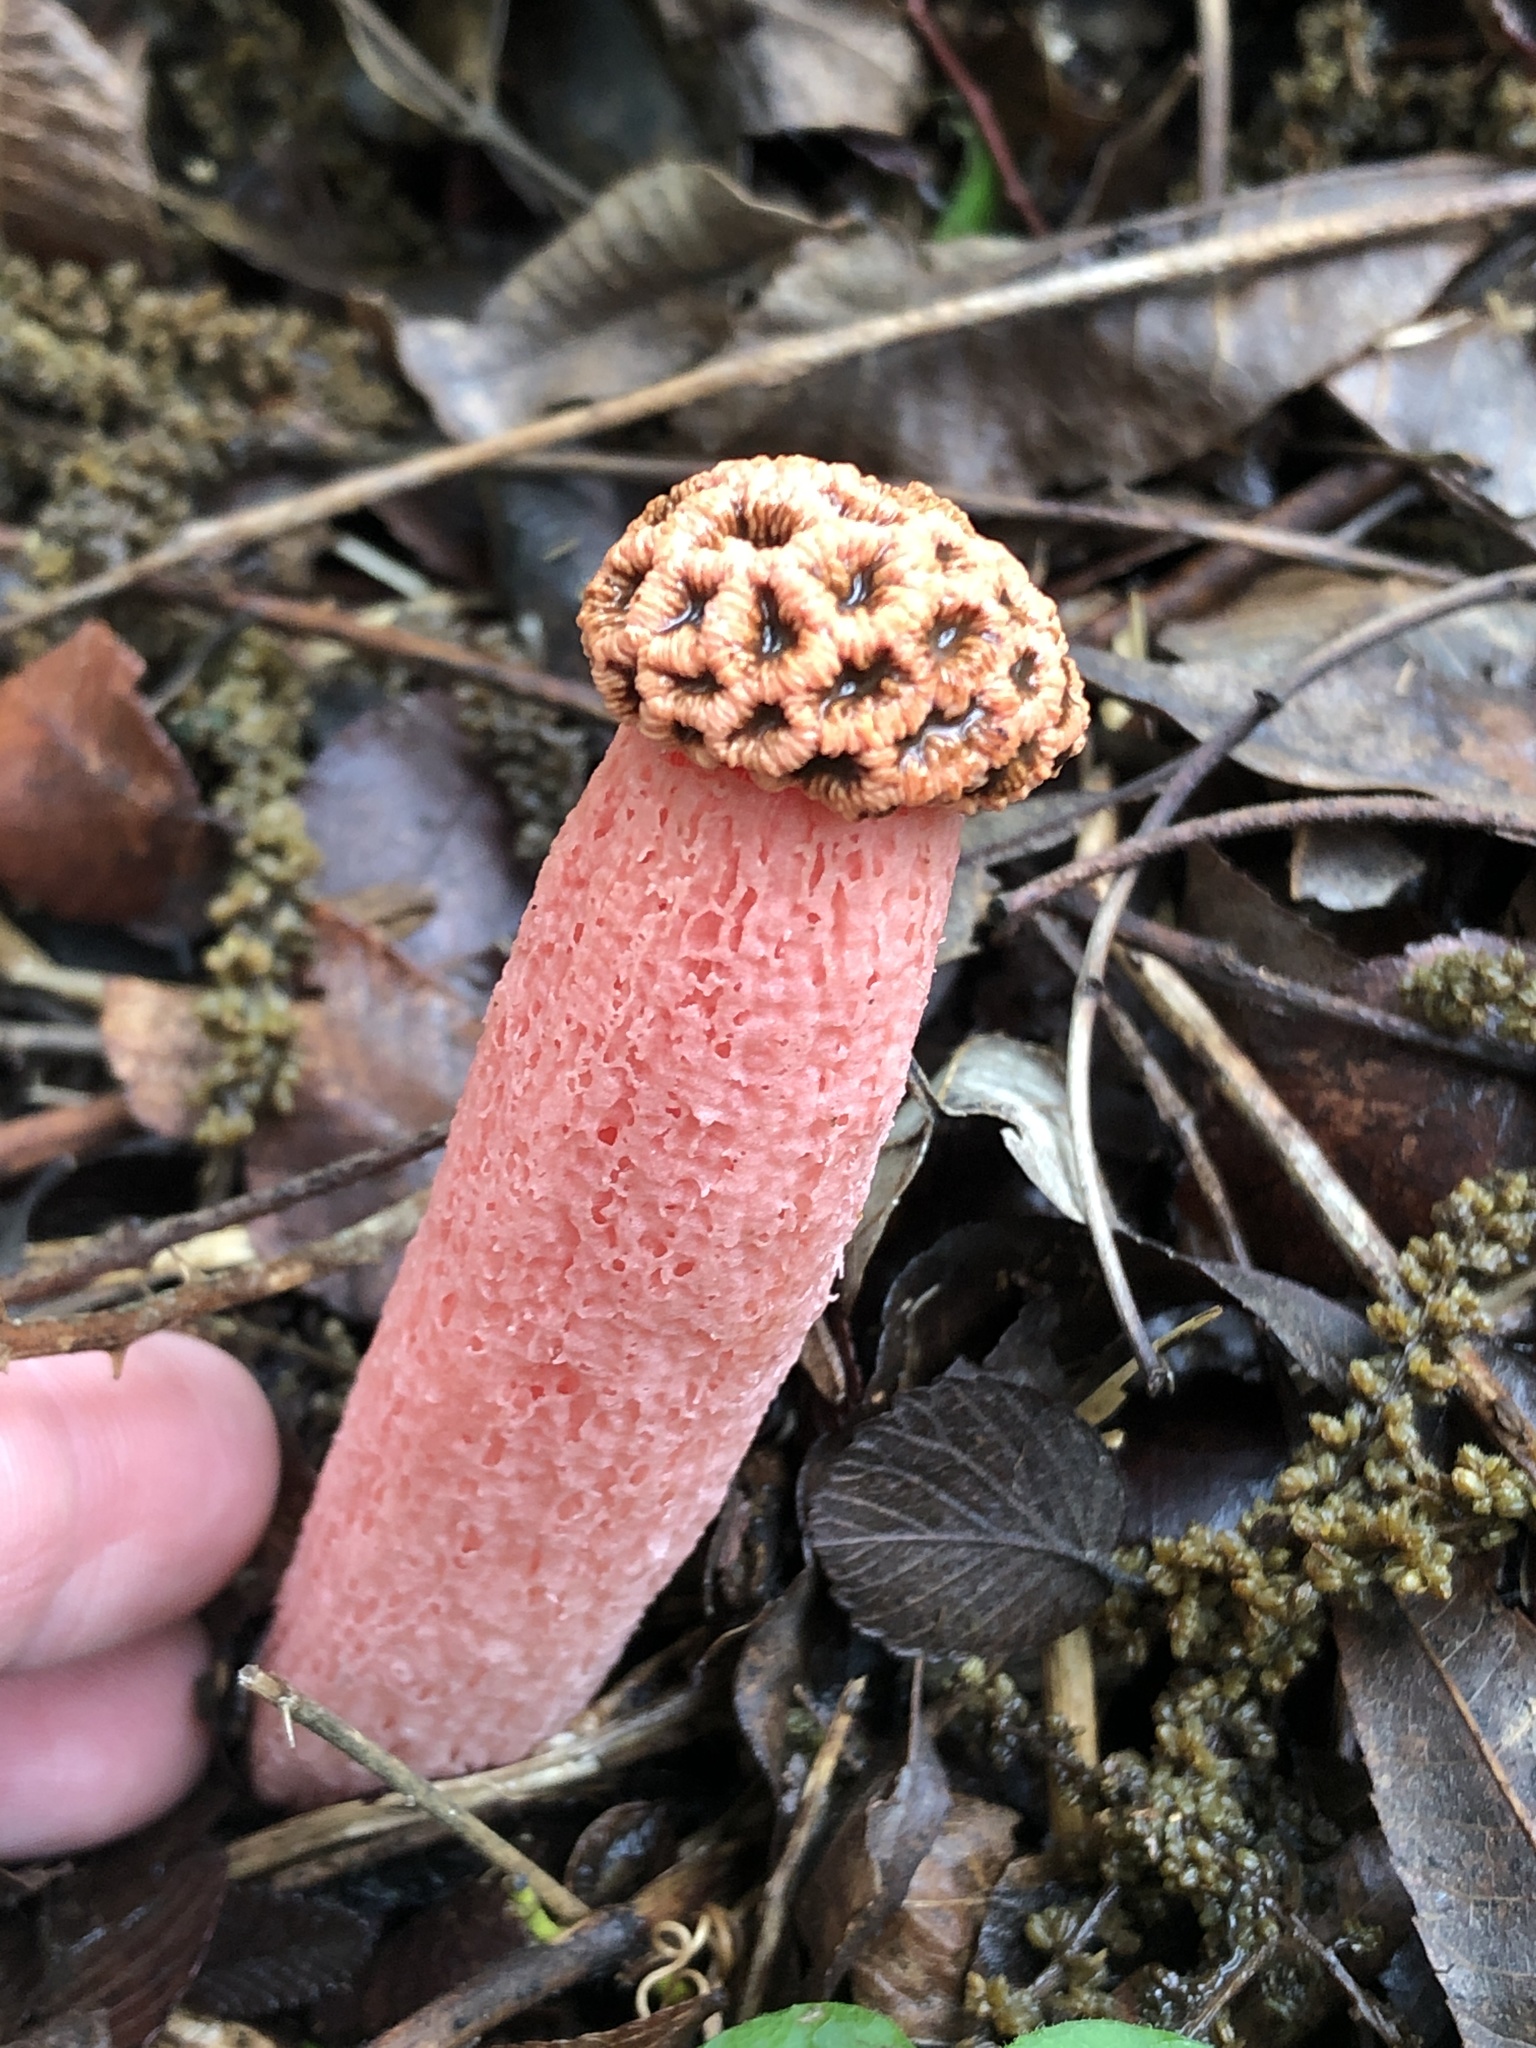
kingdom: Fungi
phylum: Basidiomycota
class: Agaricomycetes
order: Phallales
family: Phallaceae
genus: Lysurus
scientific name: Lysurus periphragmoides
